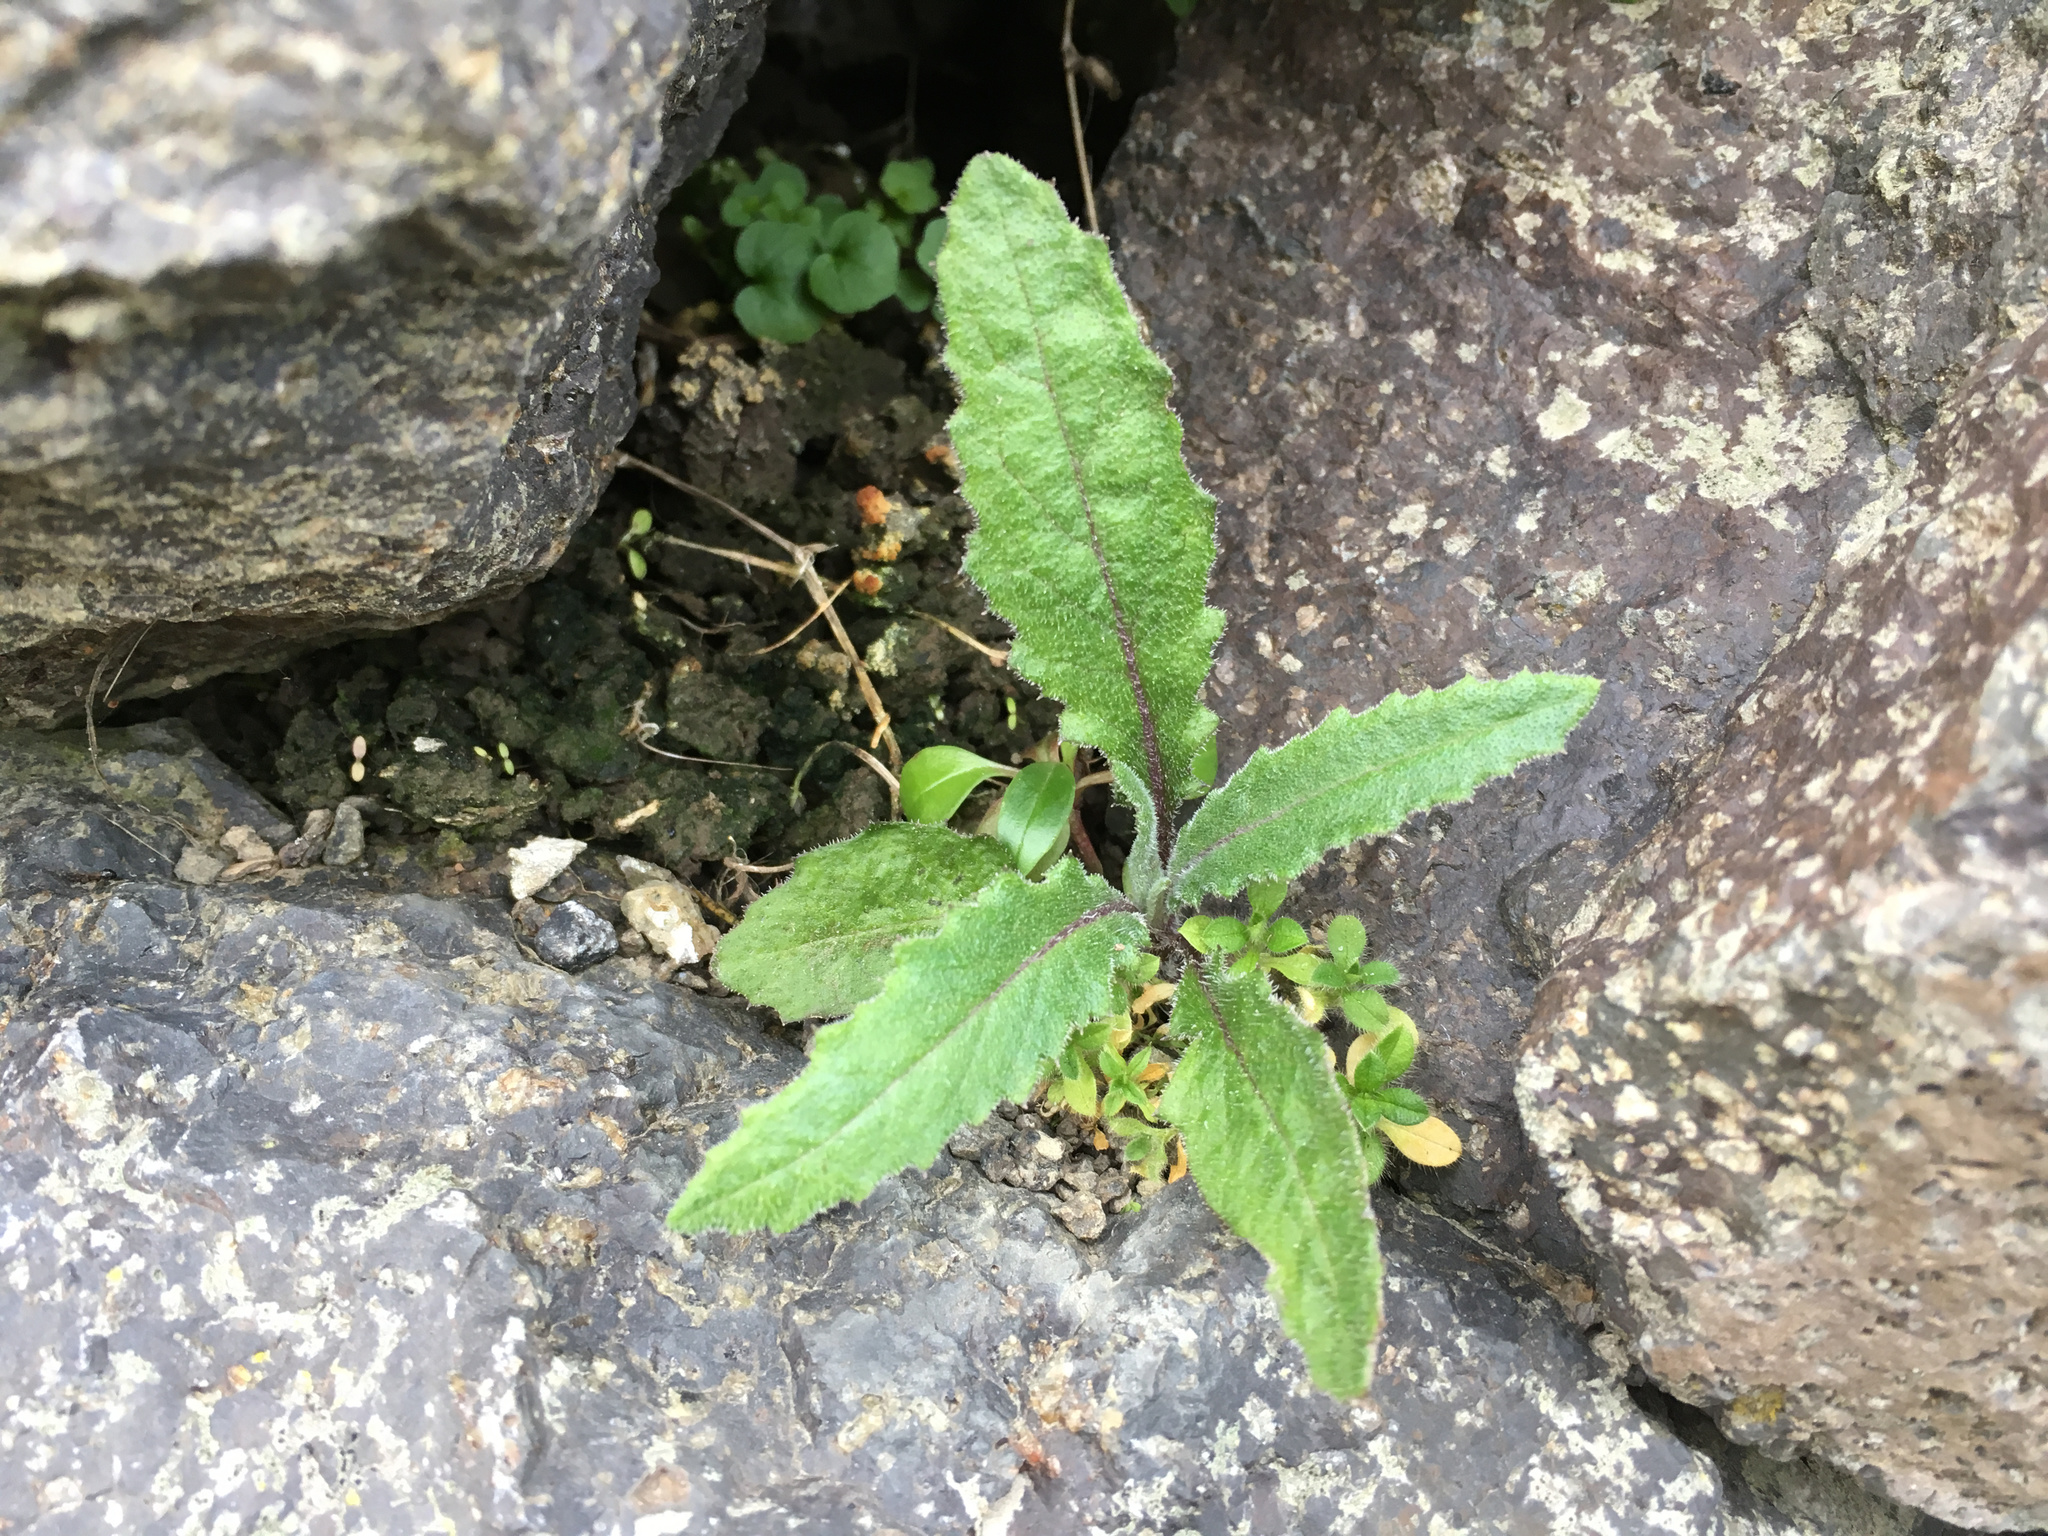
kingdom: Plantae
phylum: Tracheophyta
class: Magnoliopsida
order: Asterales
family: Asteraceae
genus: Senecio
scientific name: Senecio minimus
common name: Toothed fireweed
